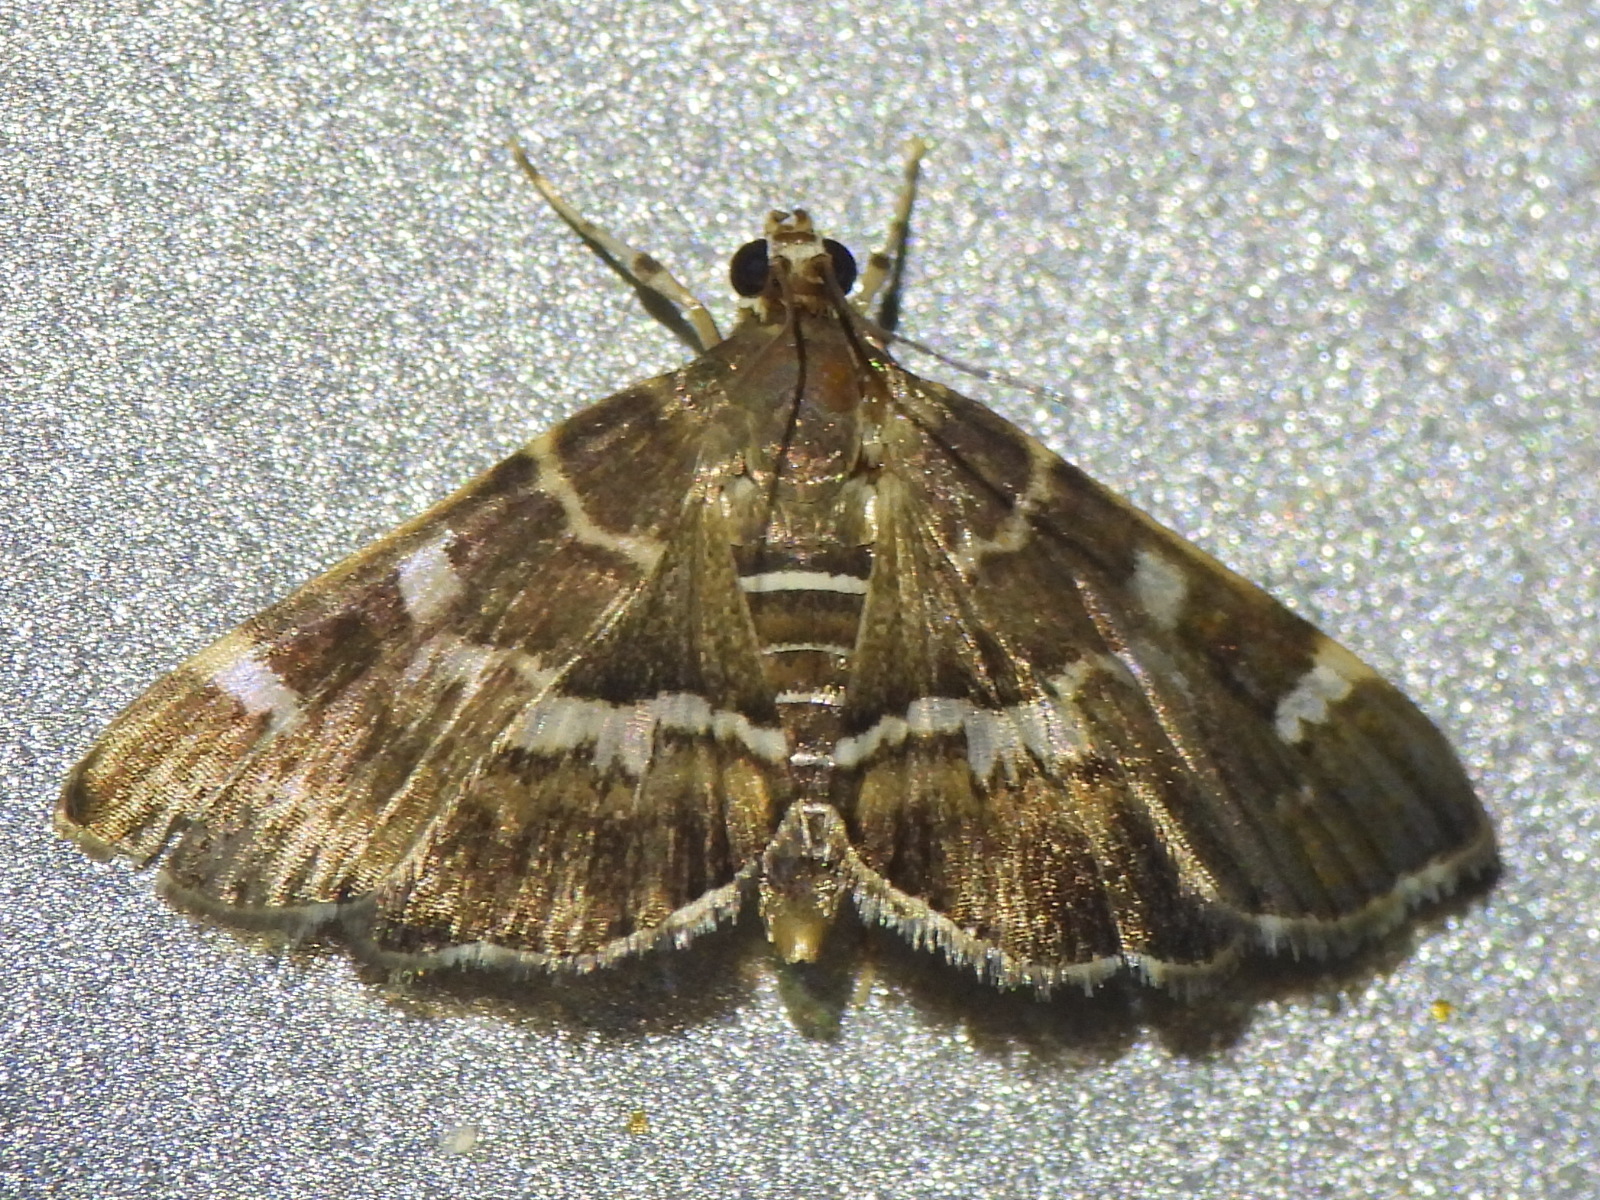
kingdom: Animalia
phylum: Arthropoda
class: Insecta
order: Lepidoptera
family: Crambidae
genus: Hymenia
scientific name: Hymenia perspectalis
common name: Spotted beet webworm
